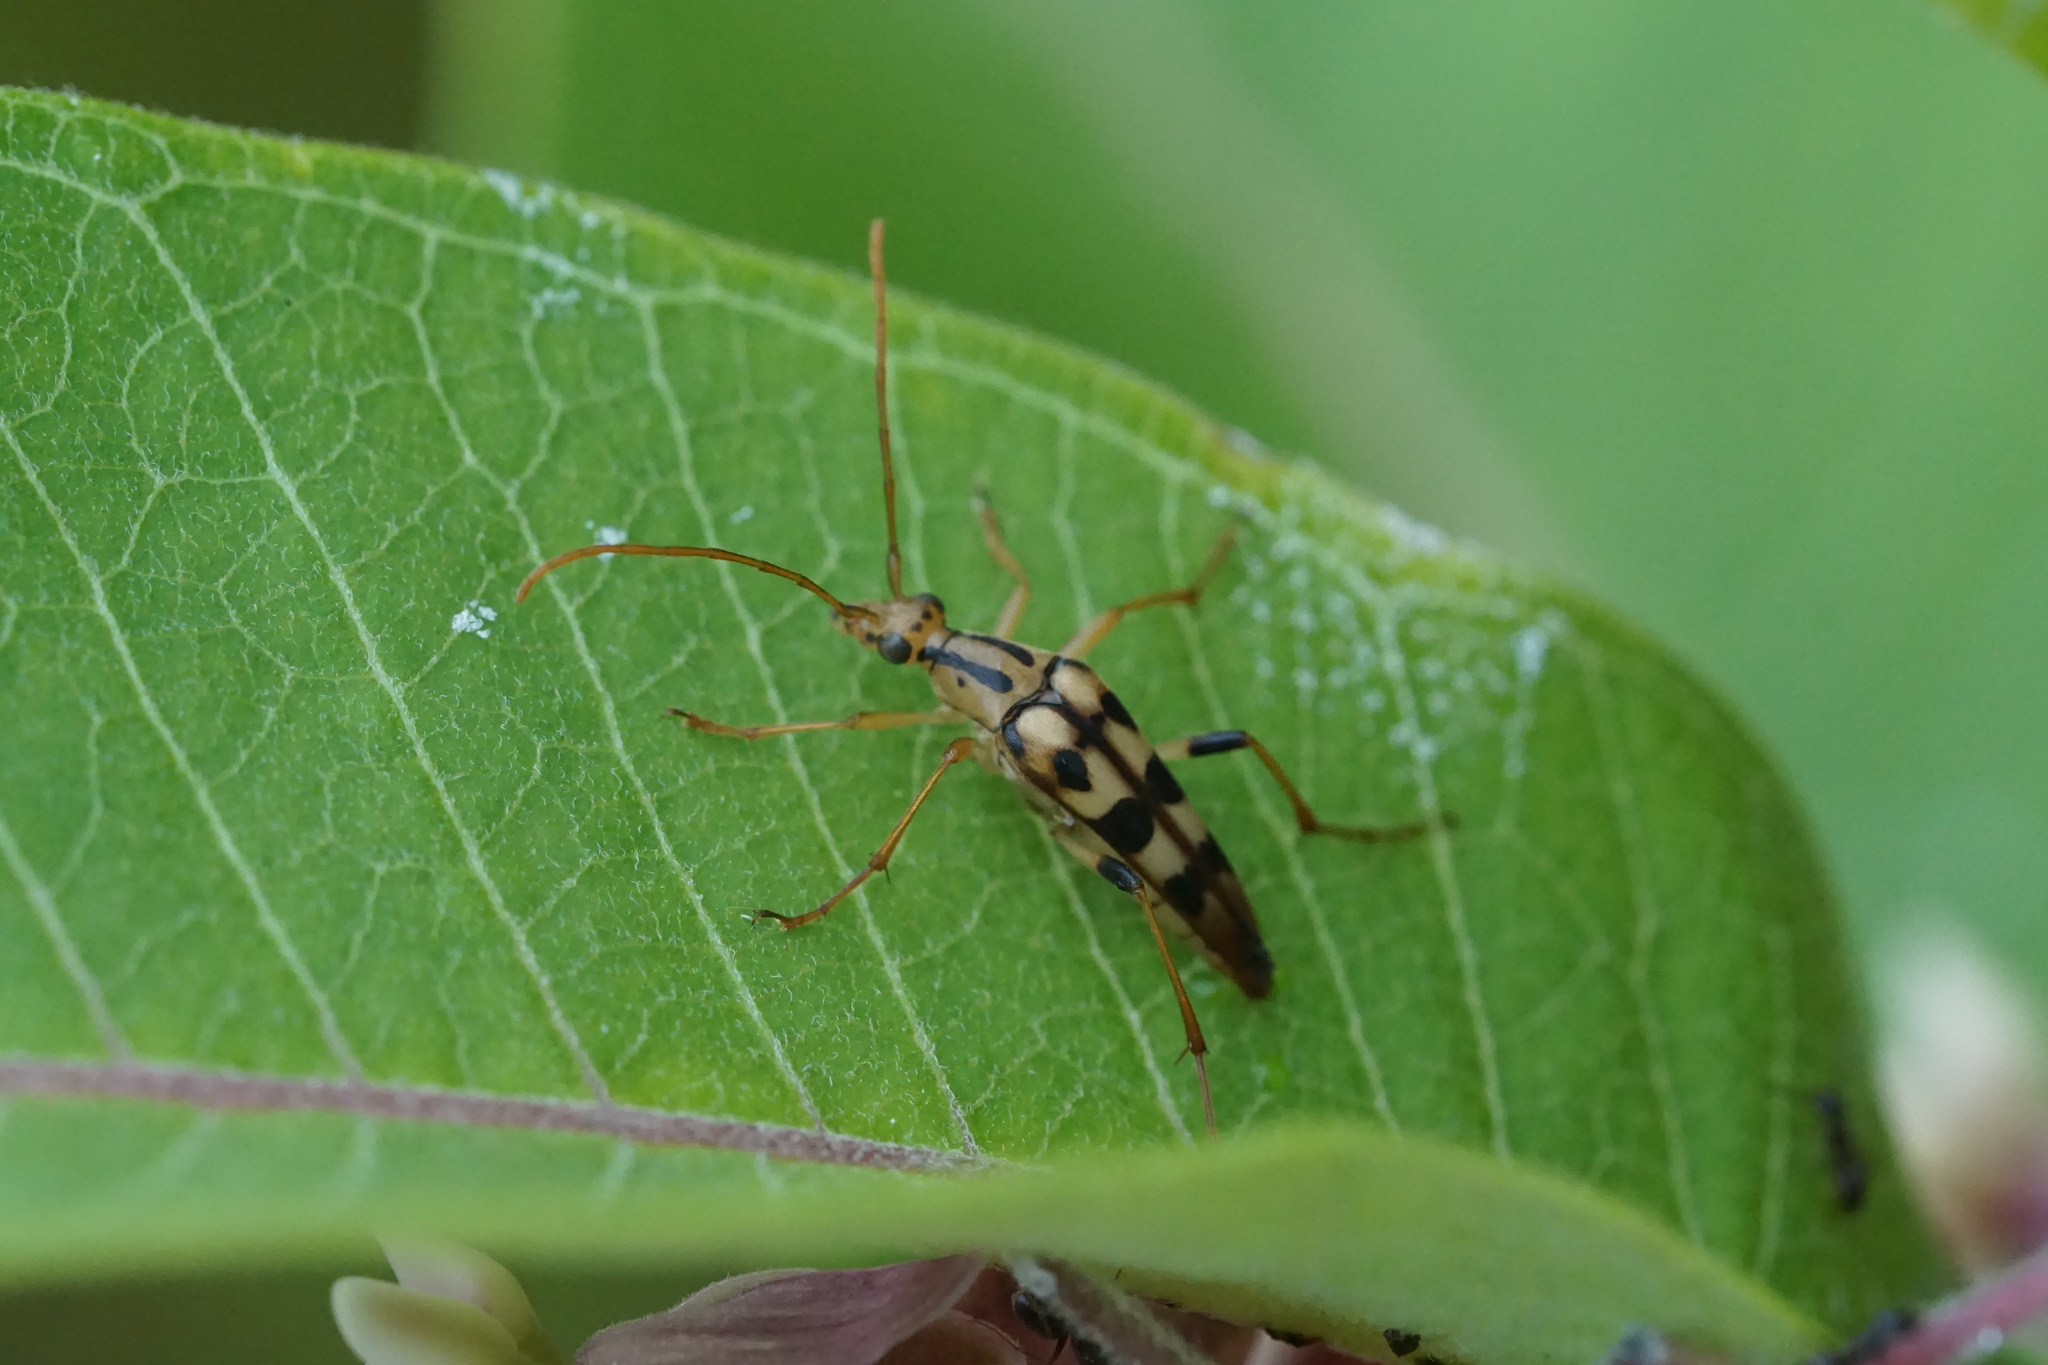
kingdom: Animalia
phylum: Arthropoda
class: Insecta
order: Coleoptera
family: Cerambycidae
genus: Strangalia
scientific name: Strangalia luteicornis
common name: Yellow-horned flower longhorn beetle
